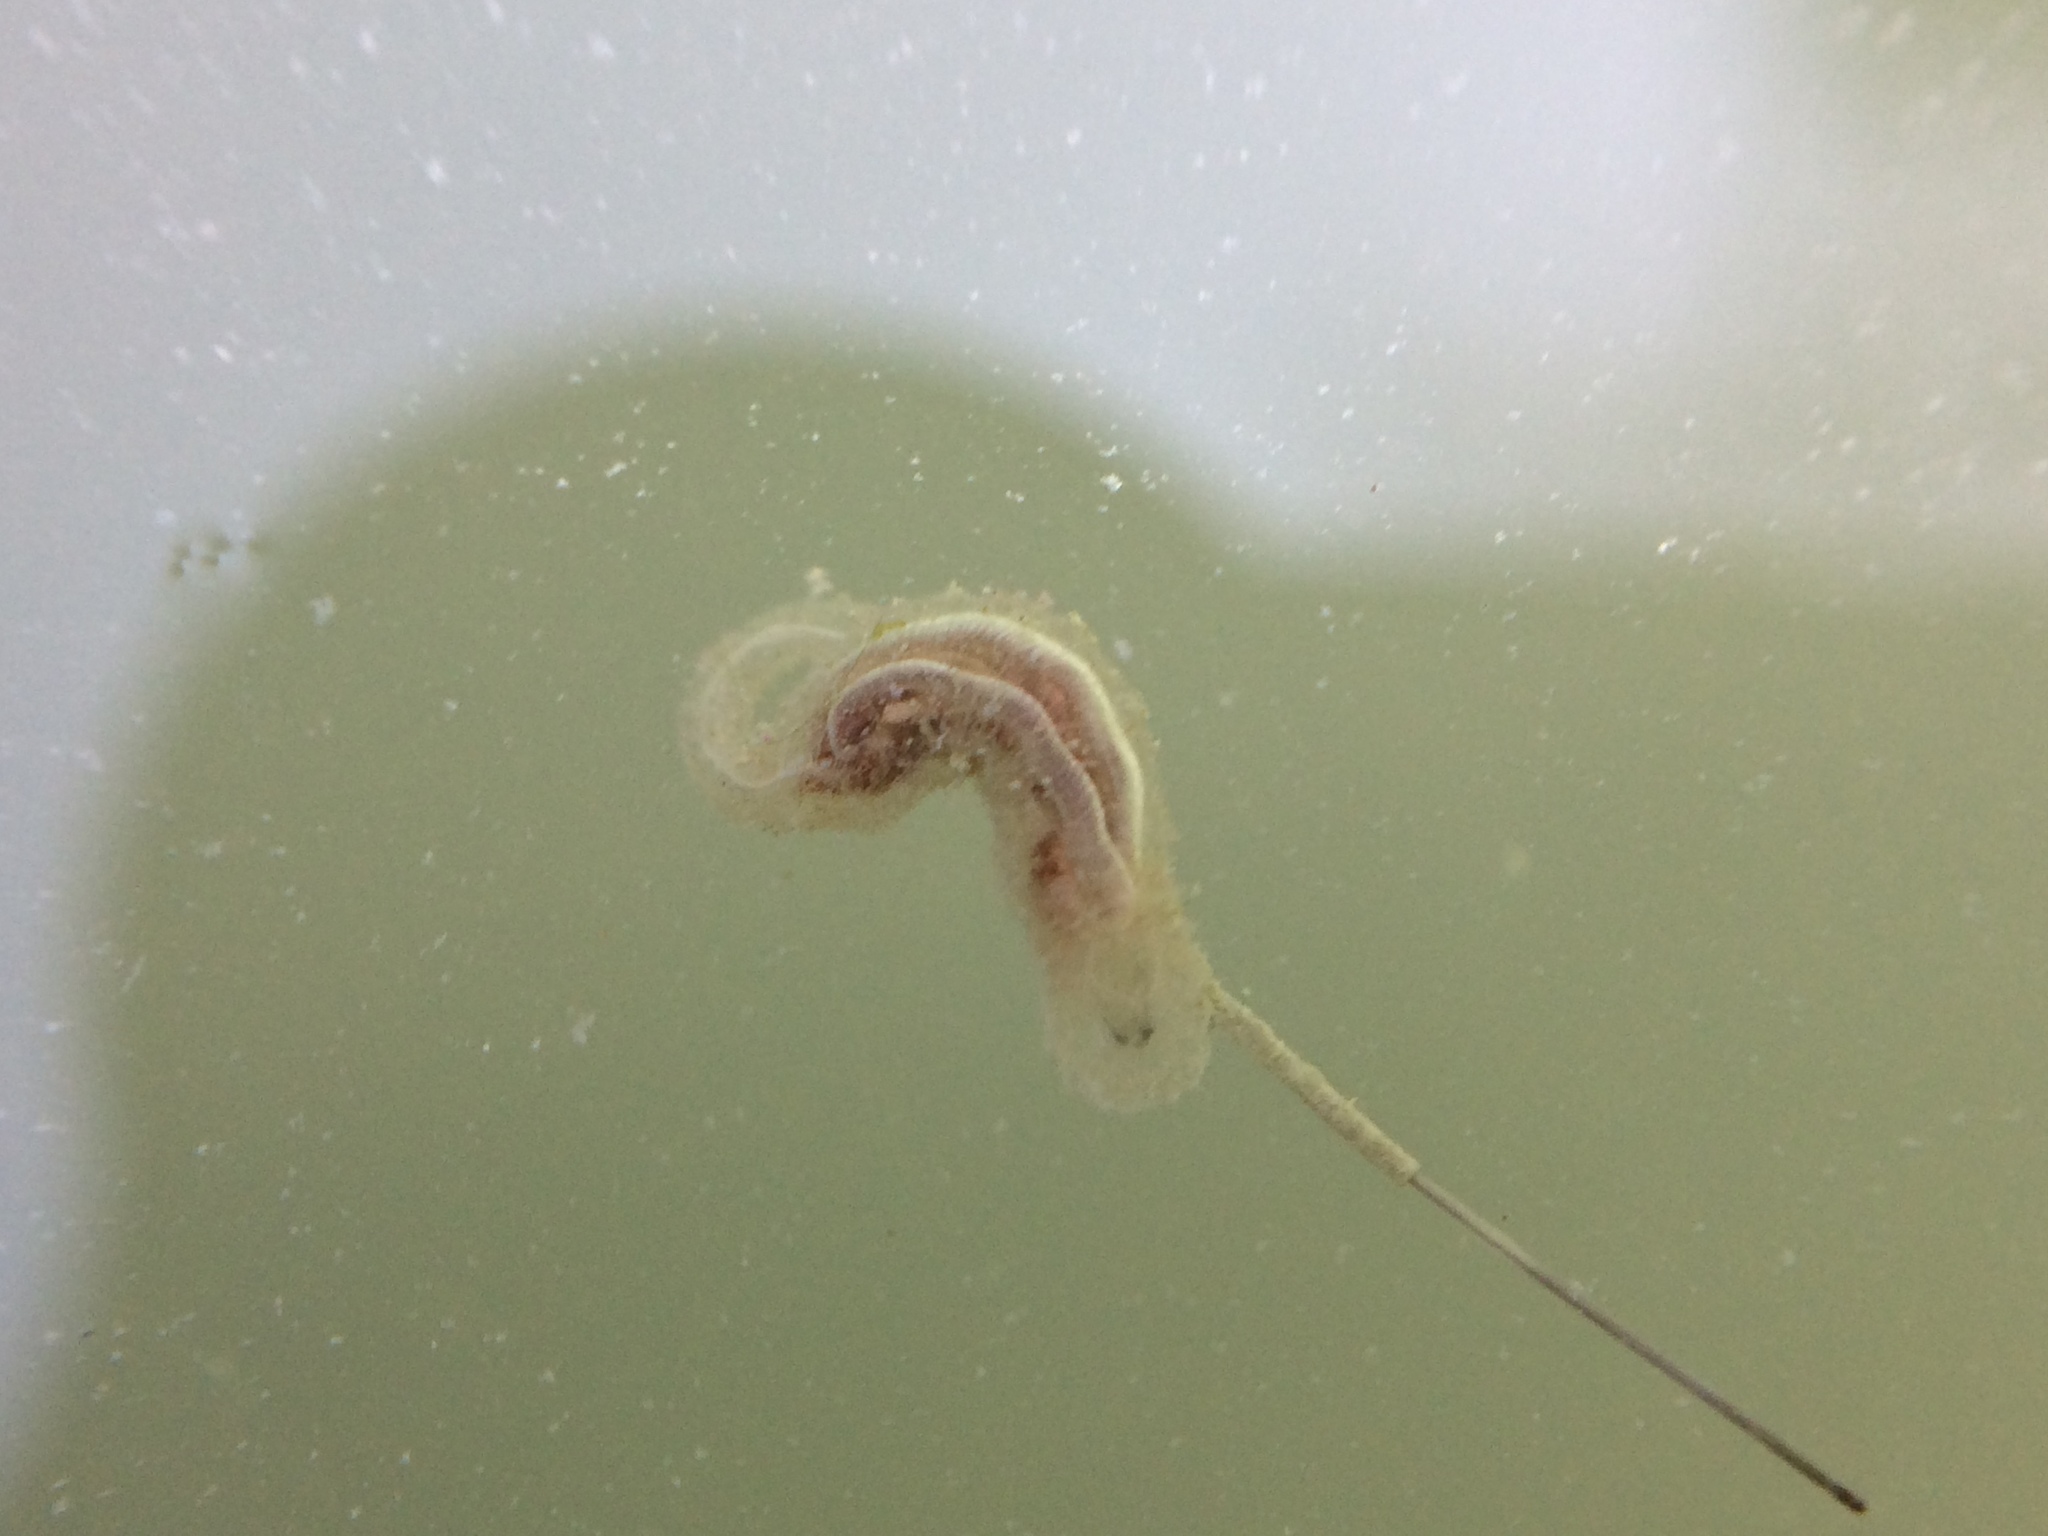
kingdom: Animalia
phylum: Arthropoda
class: Insecta
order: Diptera
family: Syrphidae
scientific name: Syrphidae
